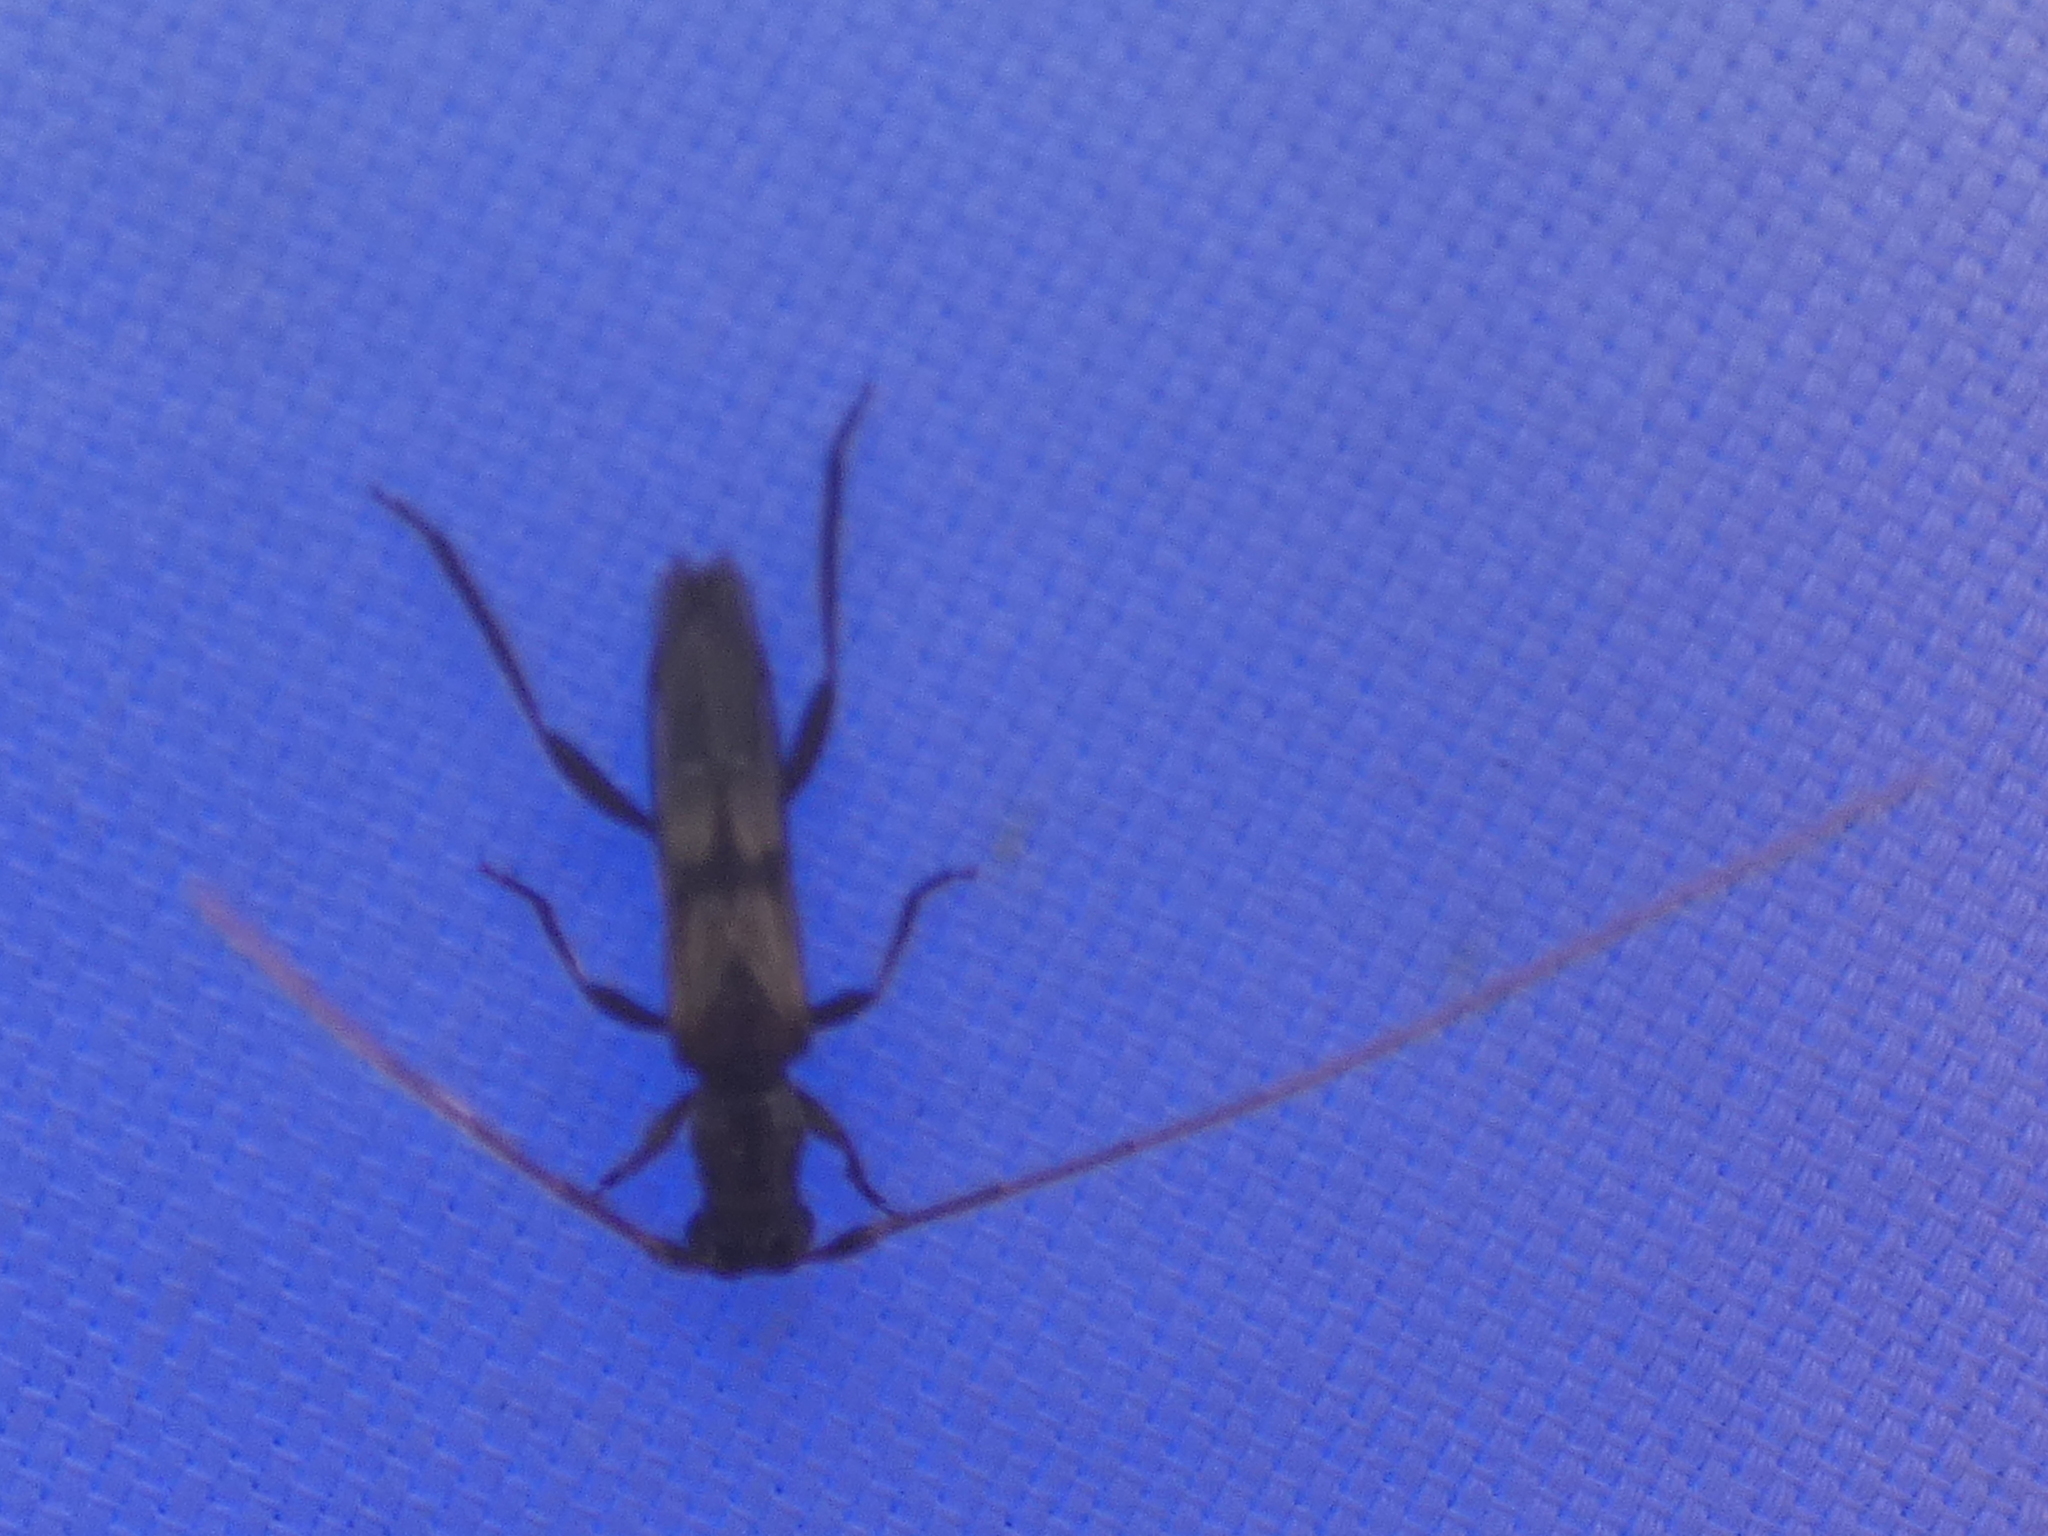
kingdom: Animalia
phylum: Arthropoda
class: Insecta
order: Coleoptera
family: Cerambycidae
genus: Methia
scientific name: Methia necydalea
